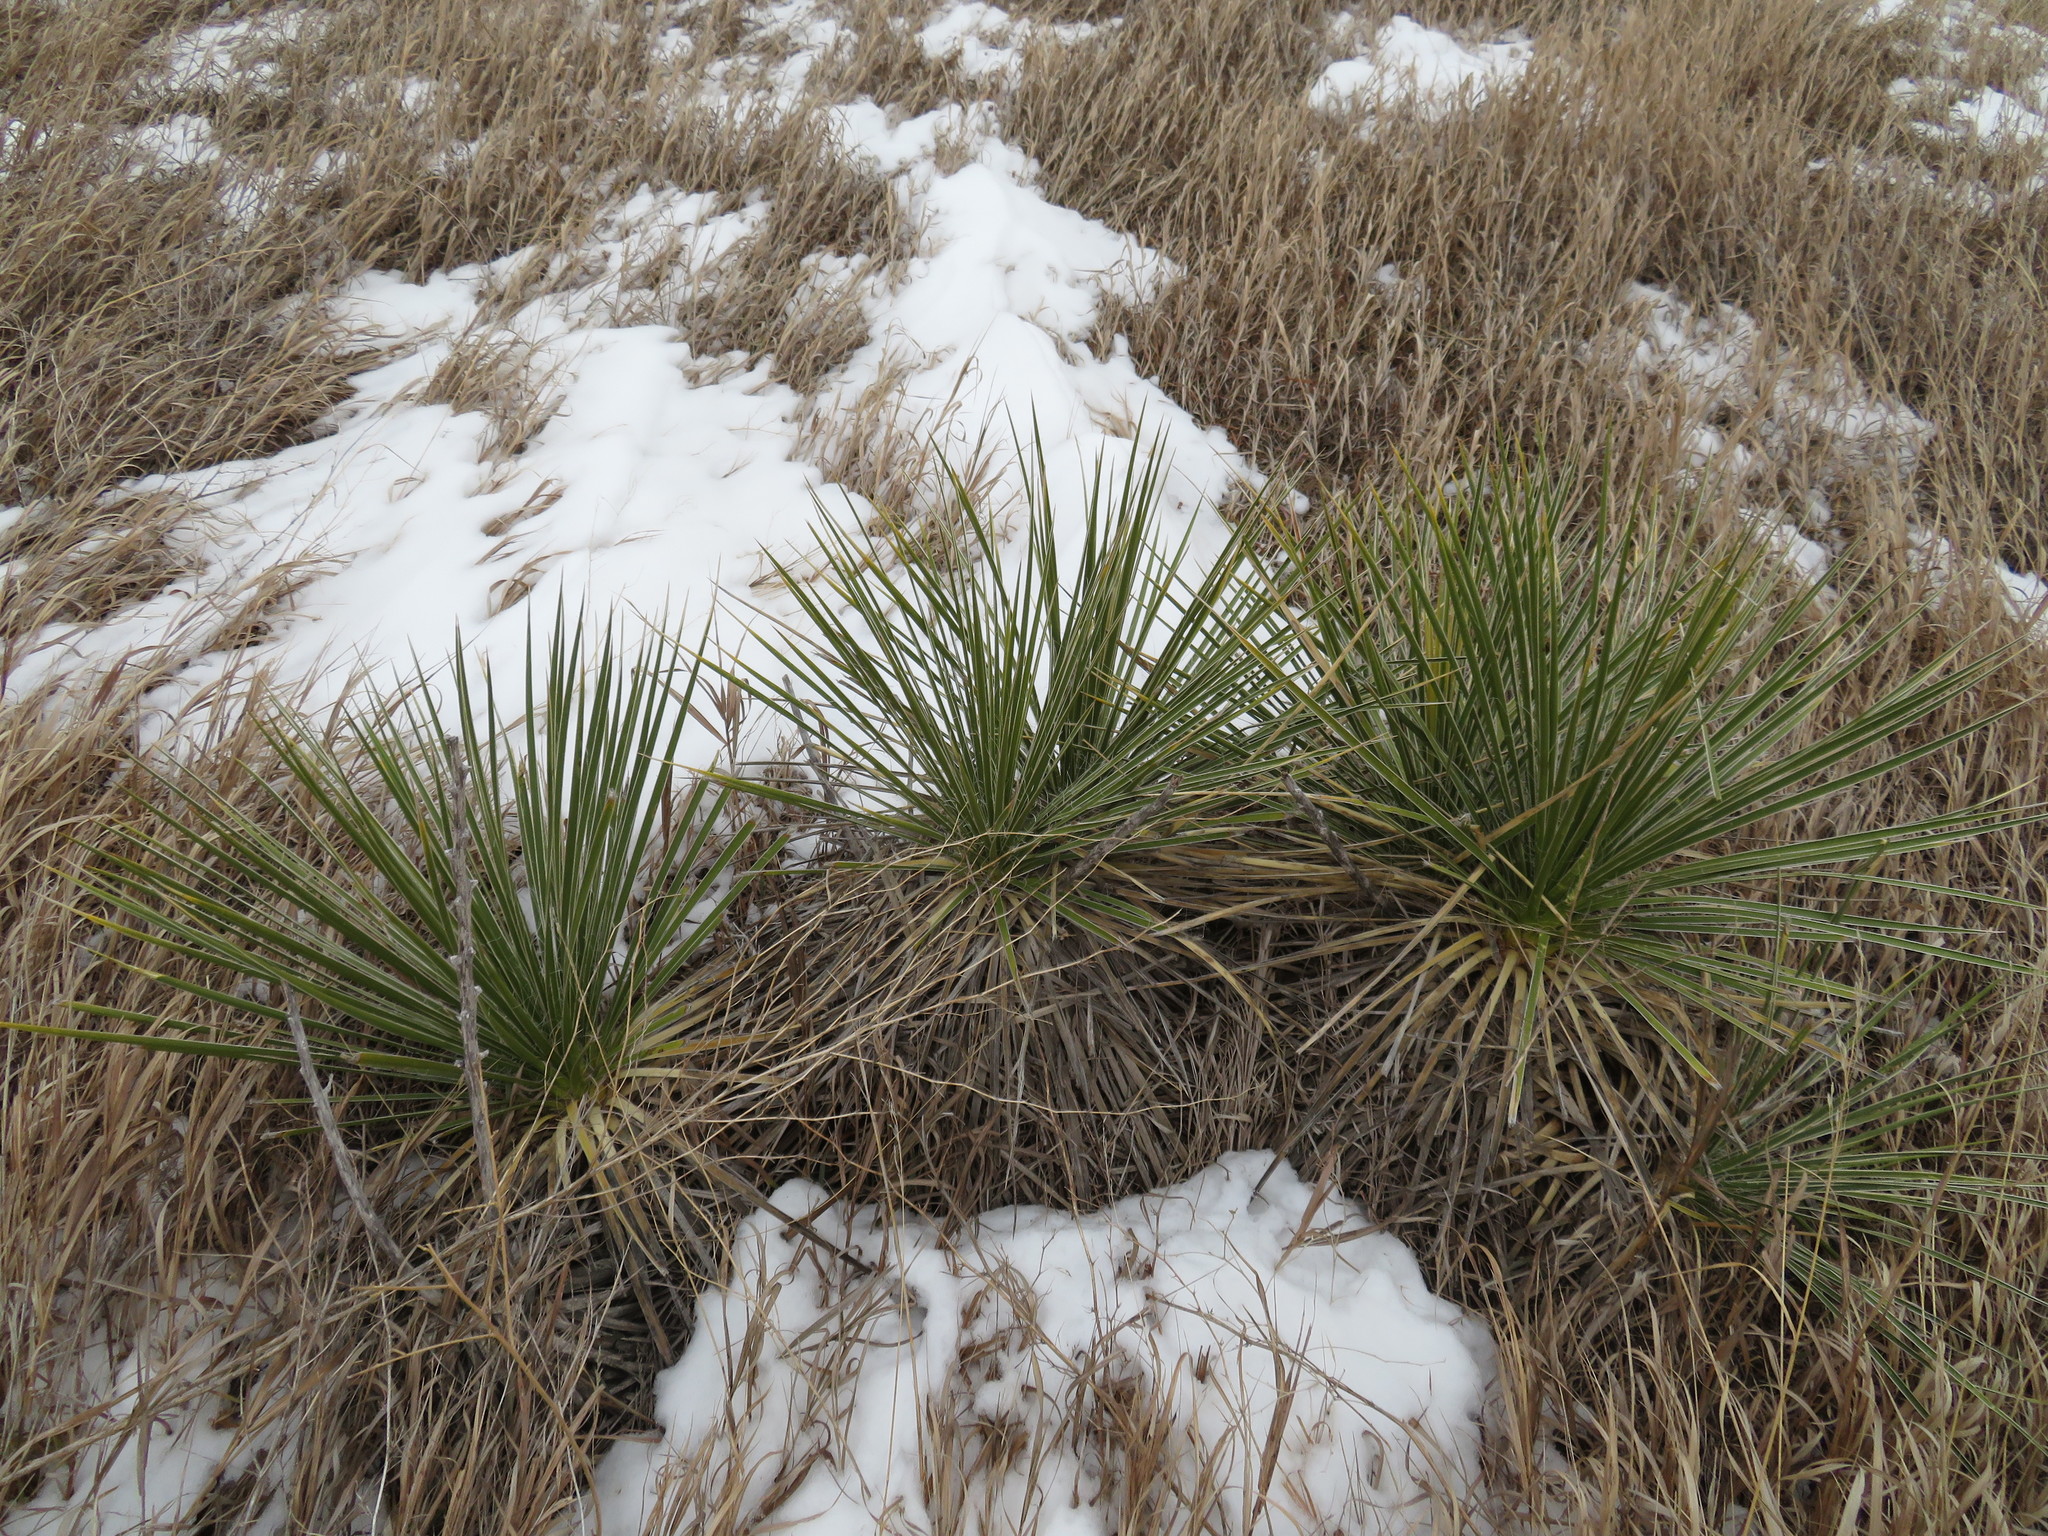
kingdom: Plantae
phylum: Tracheophyta
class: Liliopsida
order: Asparagales
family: Asparagaceae
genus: Yucca
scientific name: Yucca glauca
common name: Great plains yucca
